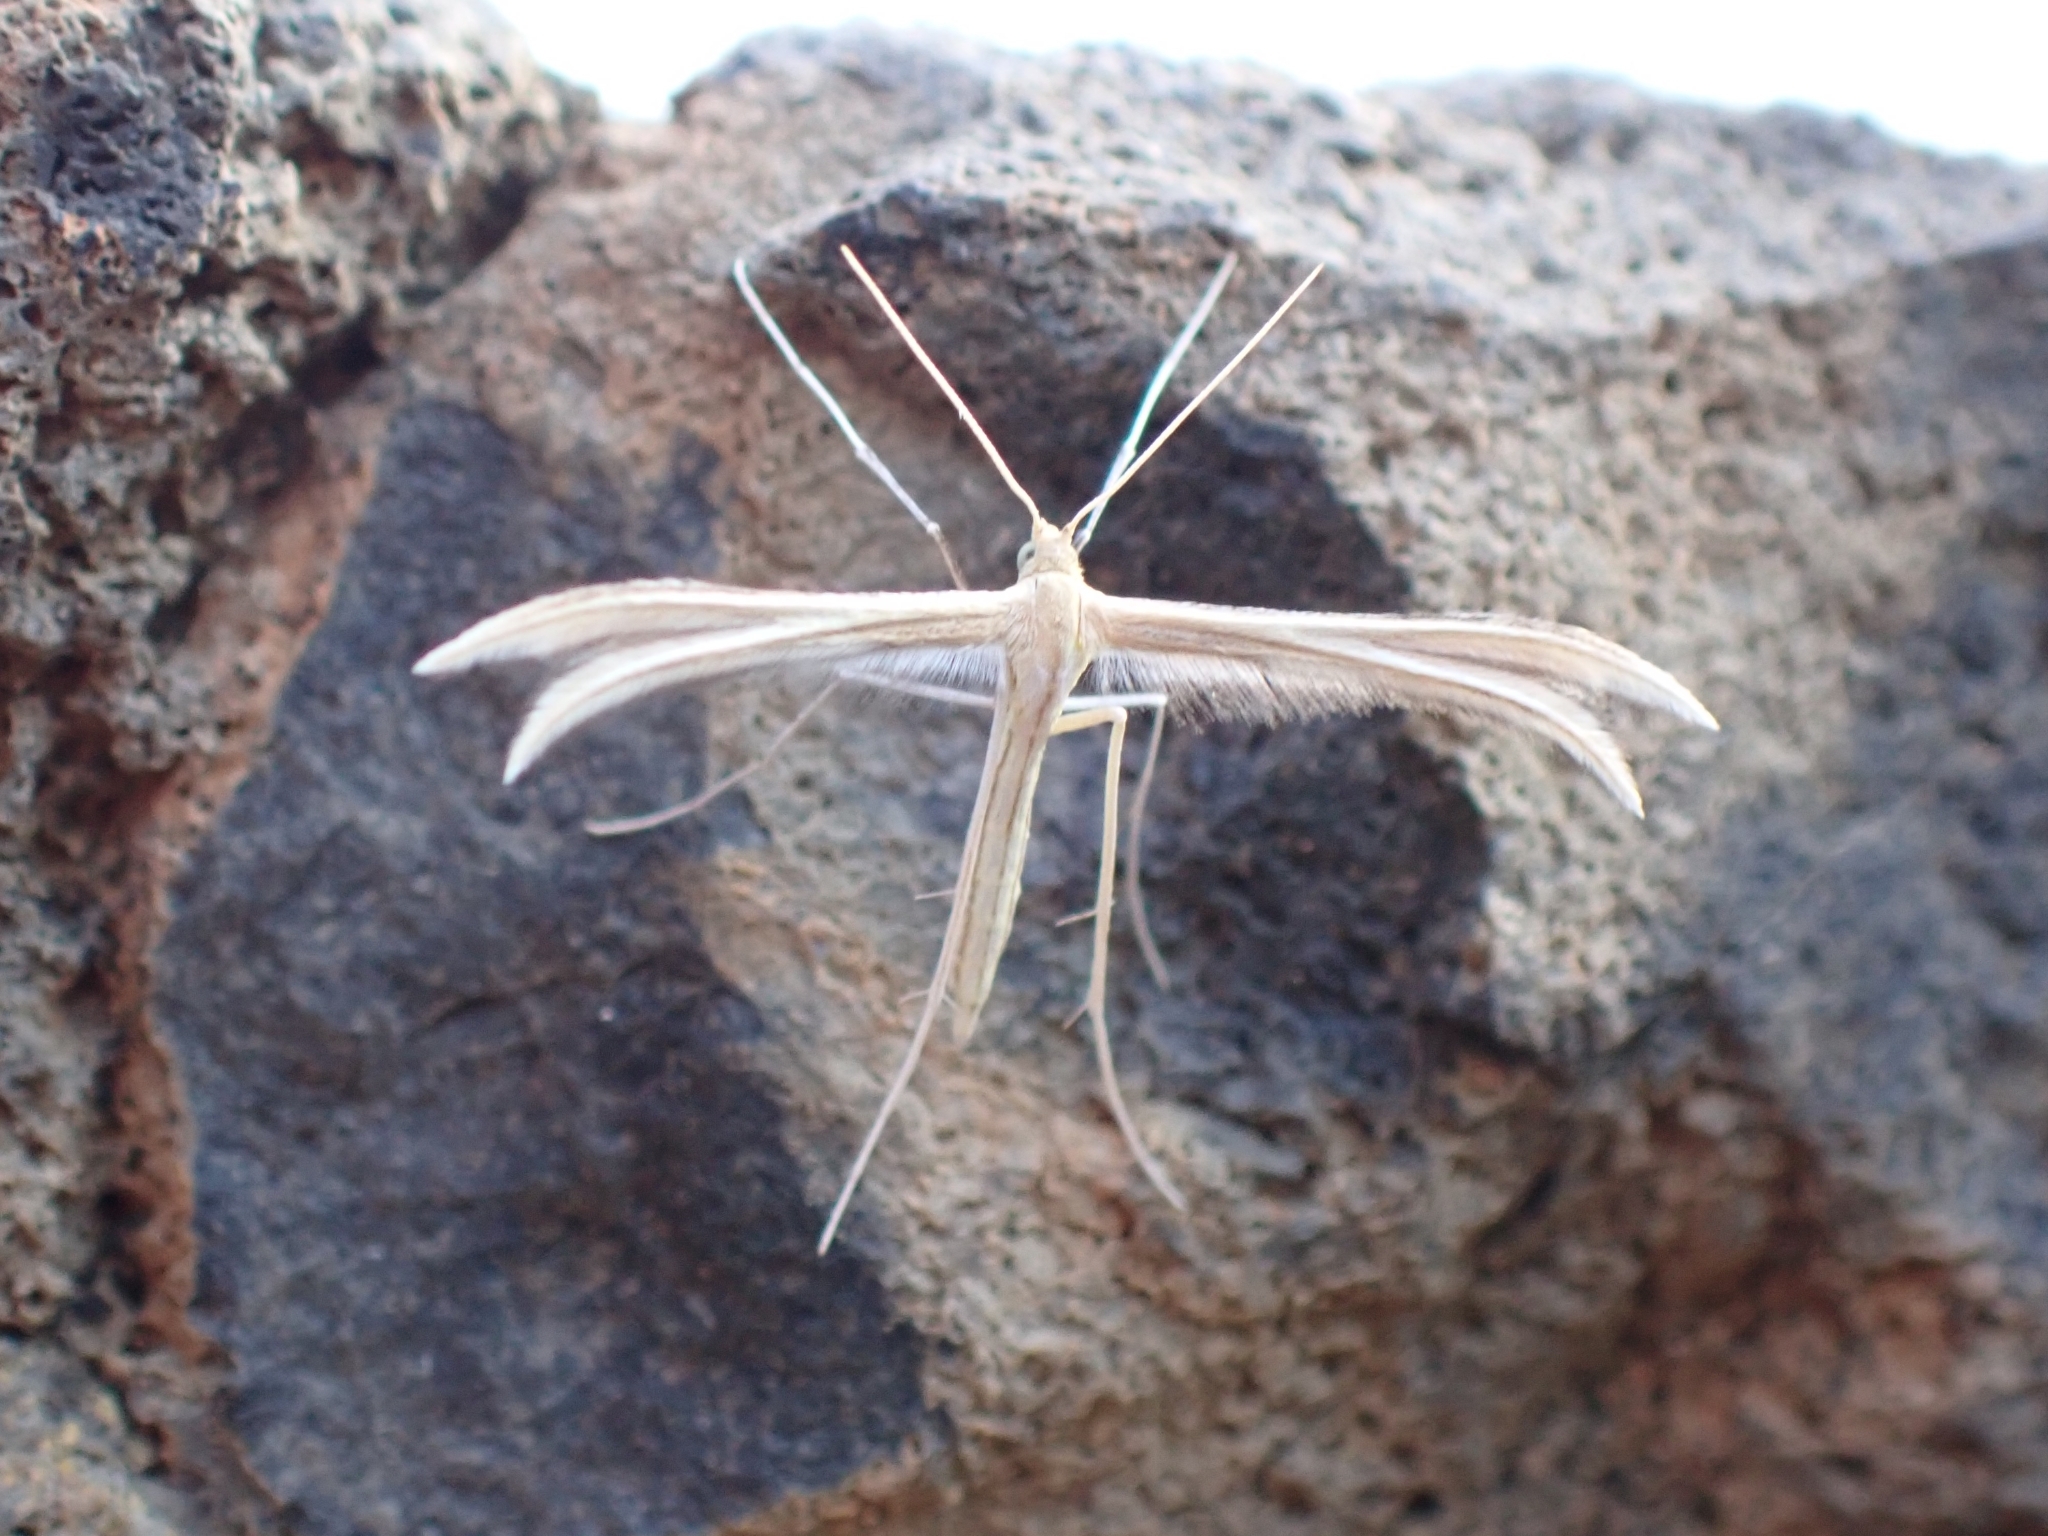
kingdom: Animalia
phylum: Arthropoda
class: Insecta
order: Lepidoptera
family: Pterophoridae
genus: Merrifieldia
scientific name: Merrifieldia particiliata
